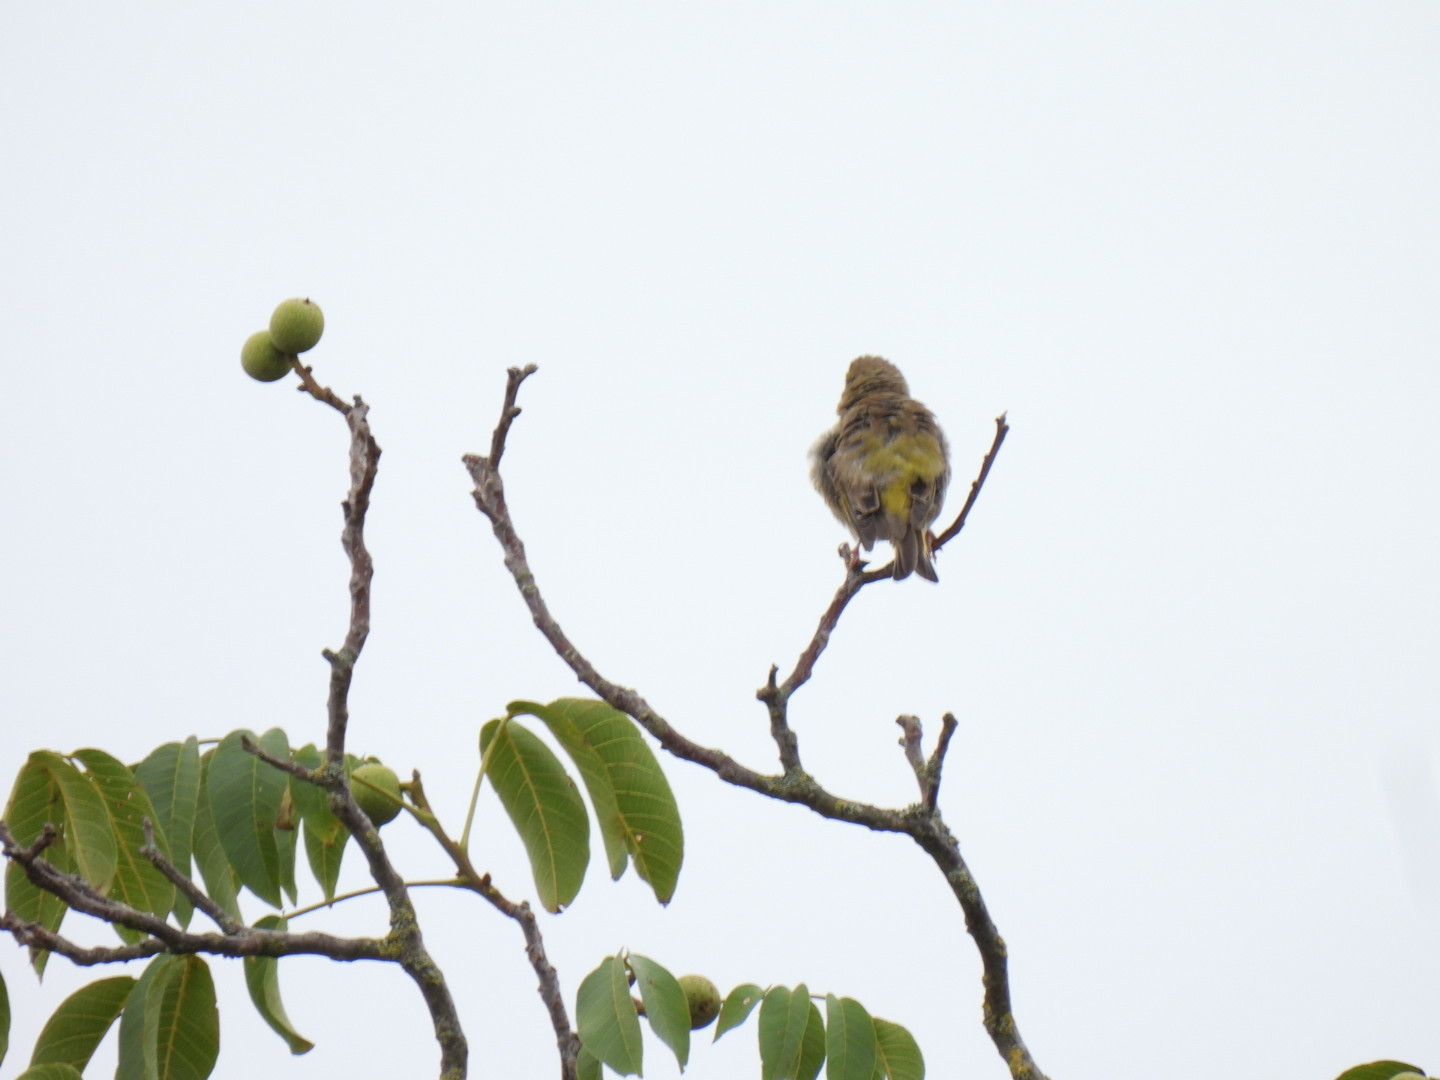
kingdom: Plantae
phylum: Tracheophyta
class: Liliopsida
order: Poales
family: Poaceae
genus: Chloris
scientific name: Chloris chloris
